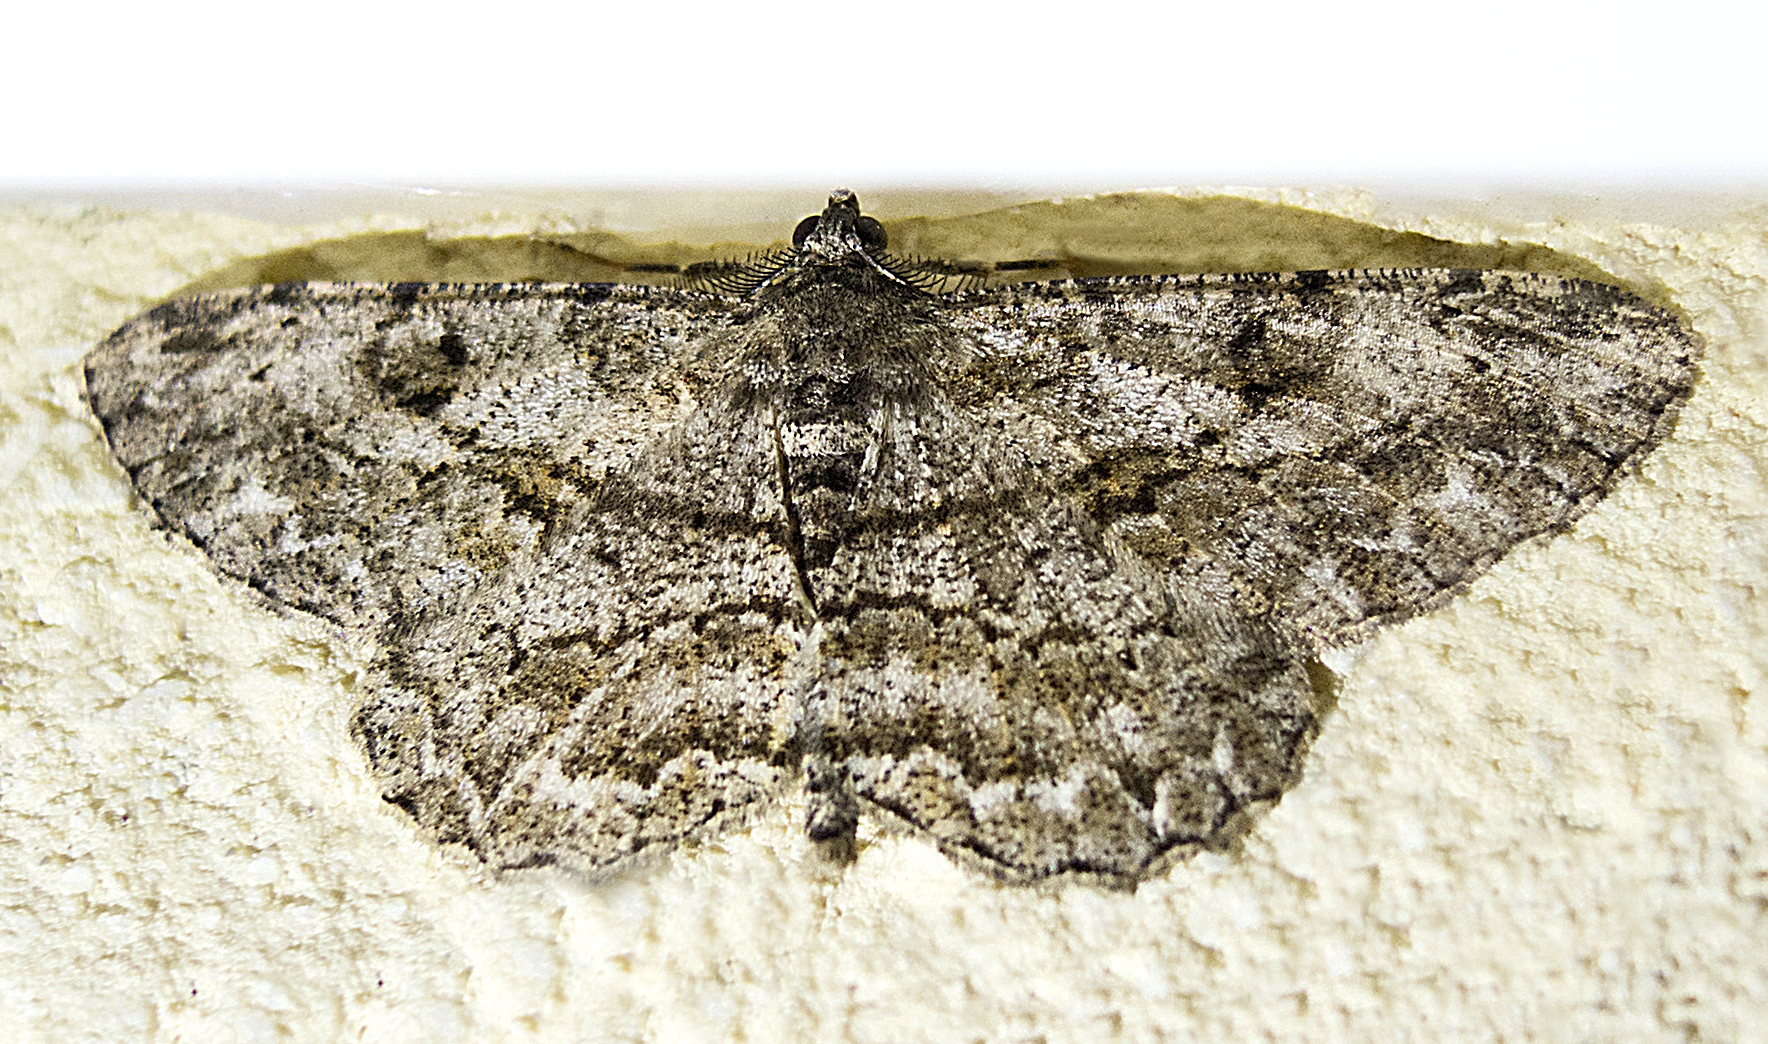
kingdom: Animalia
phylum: Arthropoda
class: Insecta
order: Lepidoptera
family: Geometridae
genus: Peribatodes
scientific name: Peribatodes rhomboidaria
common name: Willow beauty
